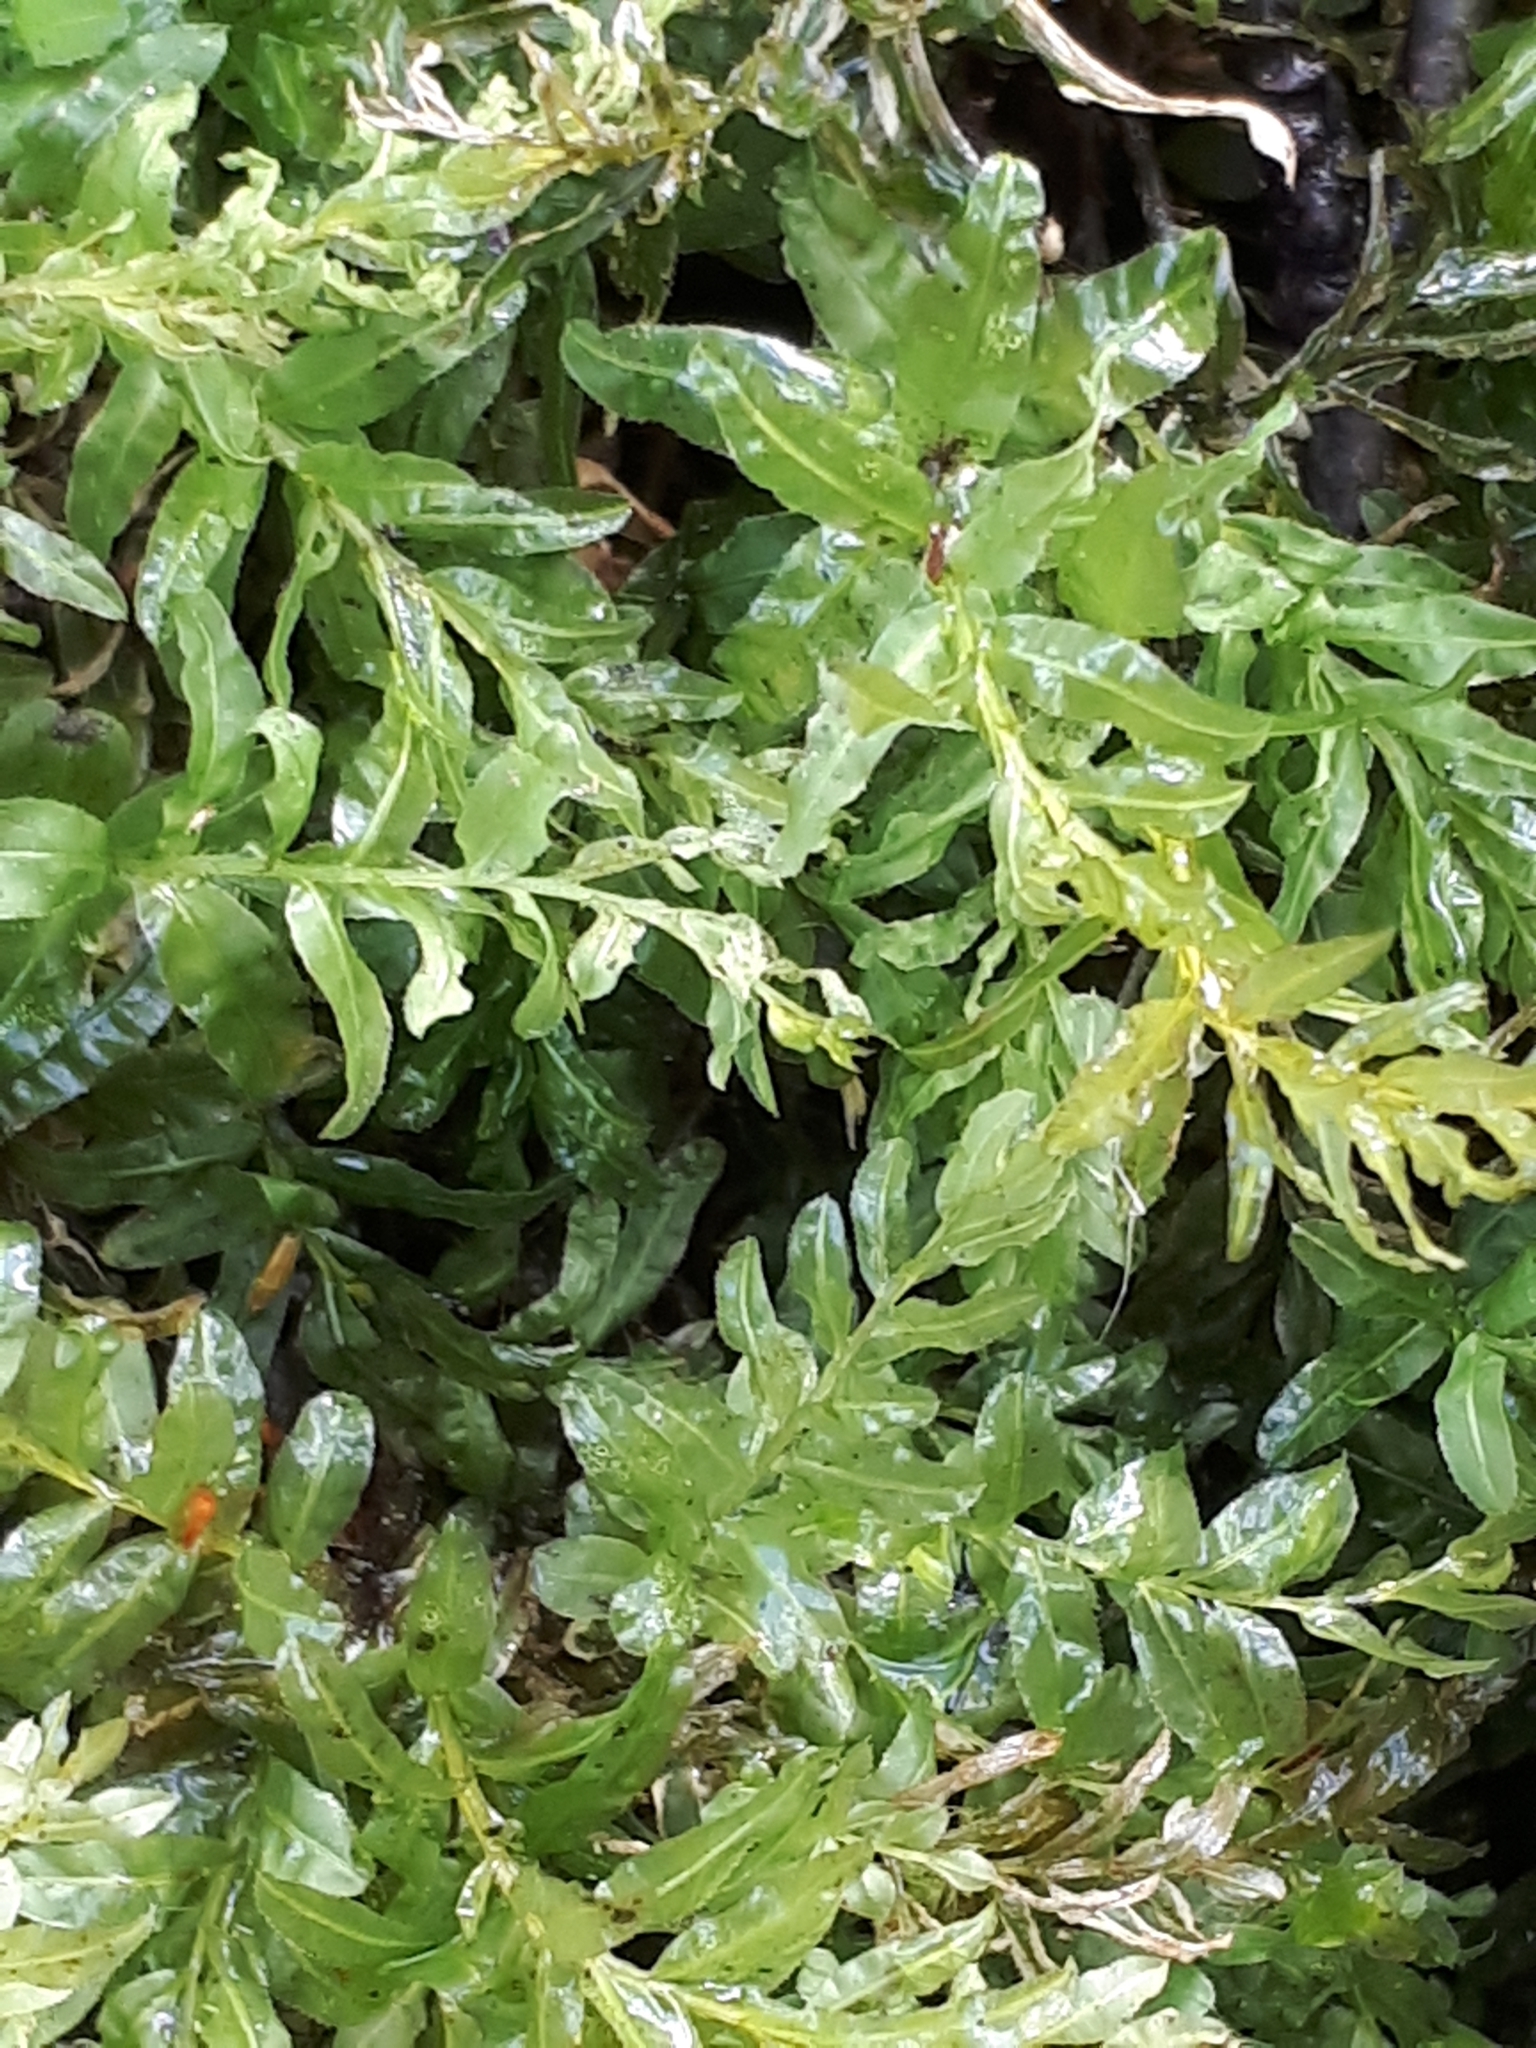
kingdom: Plantae
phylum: Bryophyta
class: Bryopsida
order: Bryales
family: Mniaceae
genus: Plagiomnium
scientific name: Plagiomnium undulatum
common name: Hart's-tongue thyme-moss
